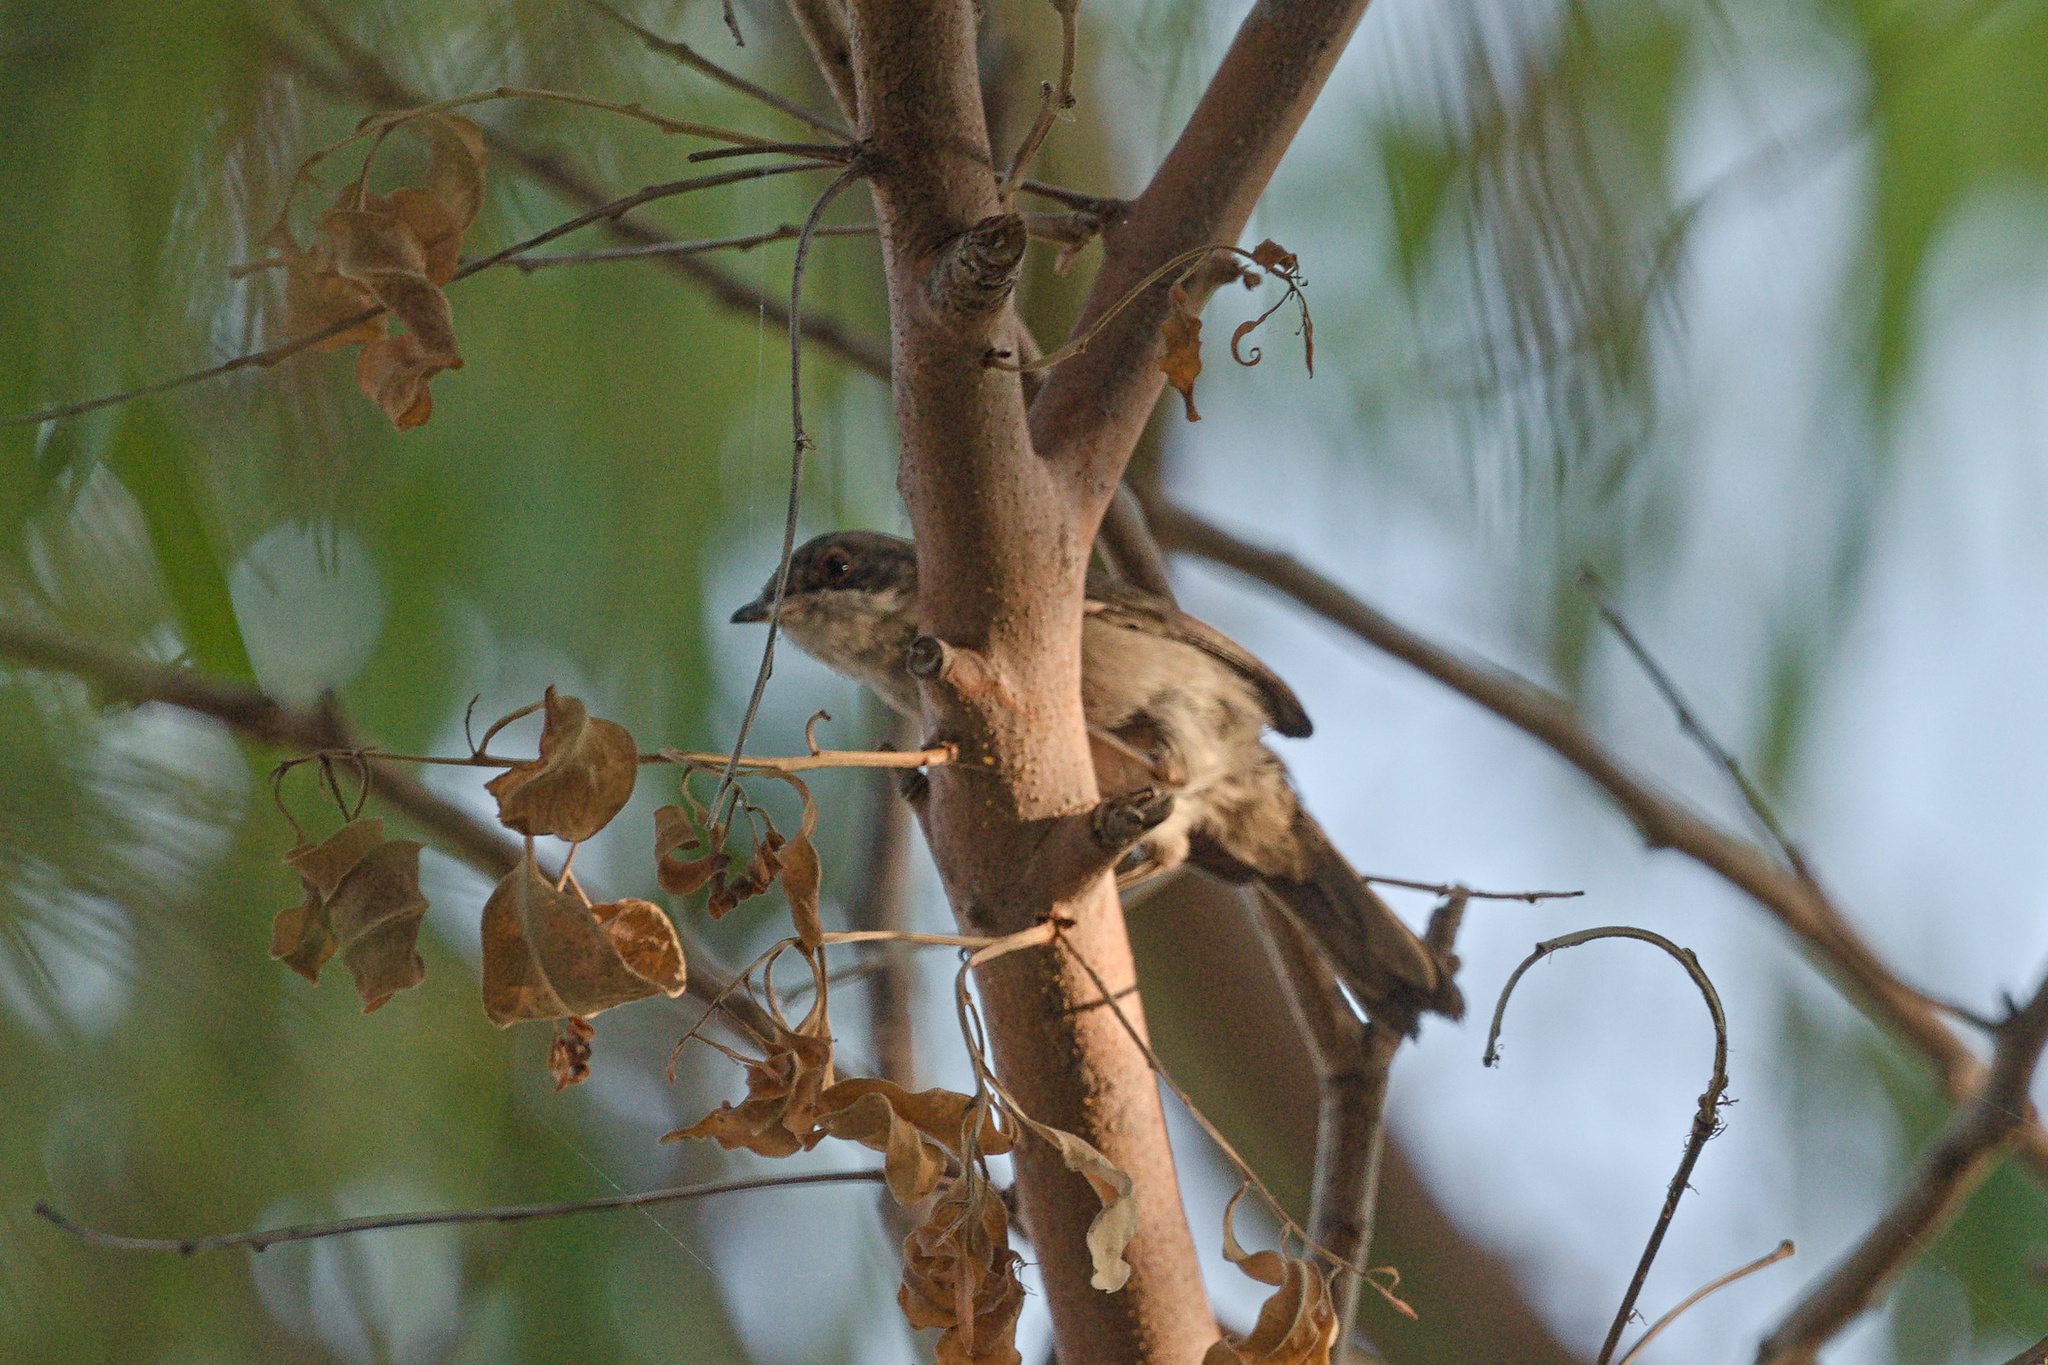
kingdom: Animalia
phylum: Chordata
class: Aves
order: Passeriformes
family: Sylviidae
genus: Curruca
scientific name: Curruca melanocephala
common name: Sardinian warbler
